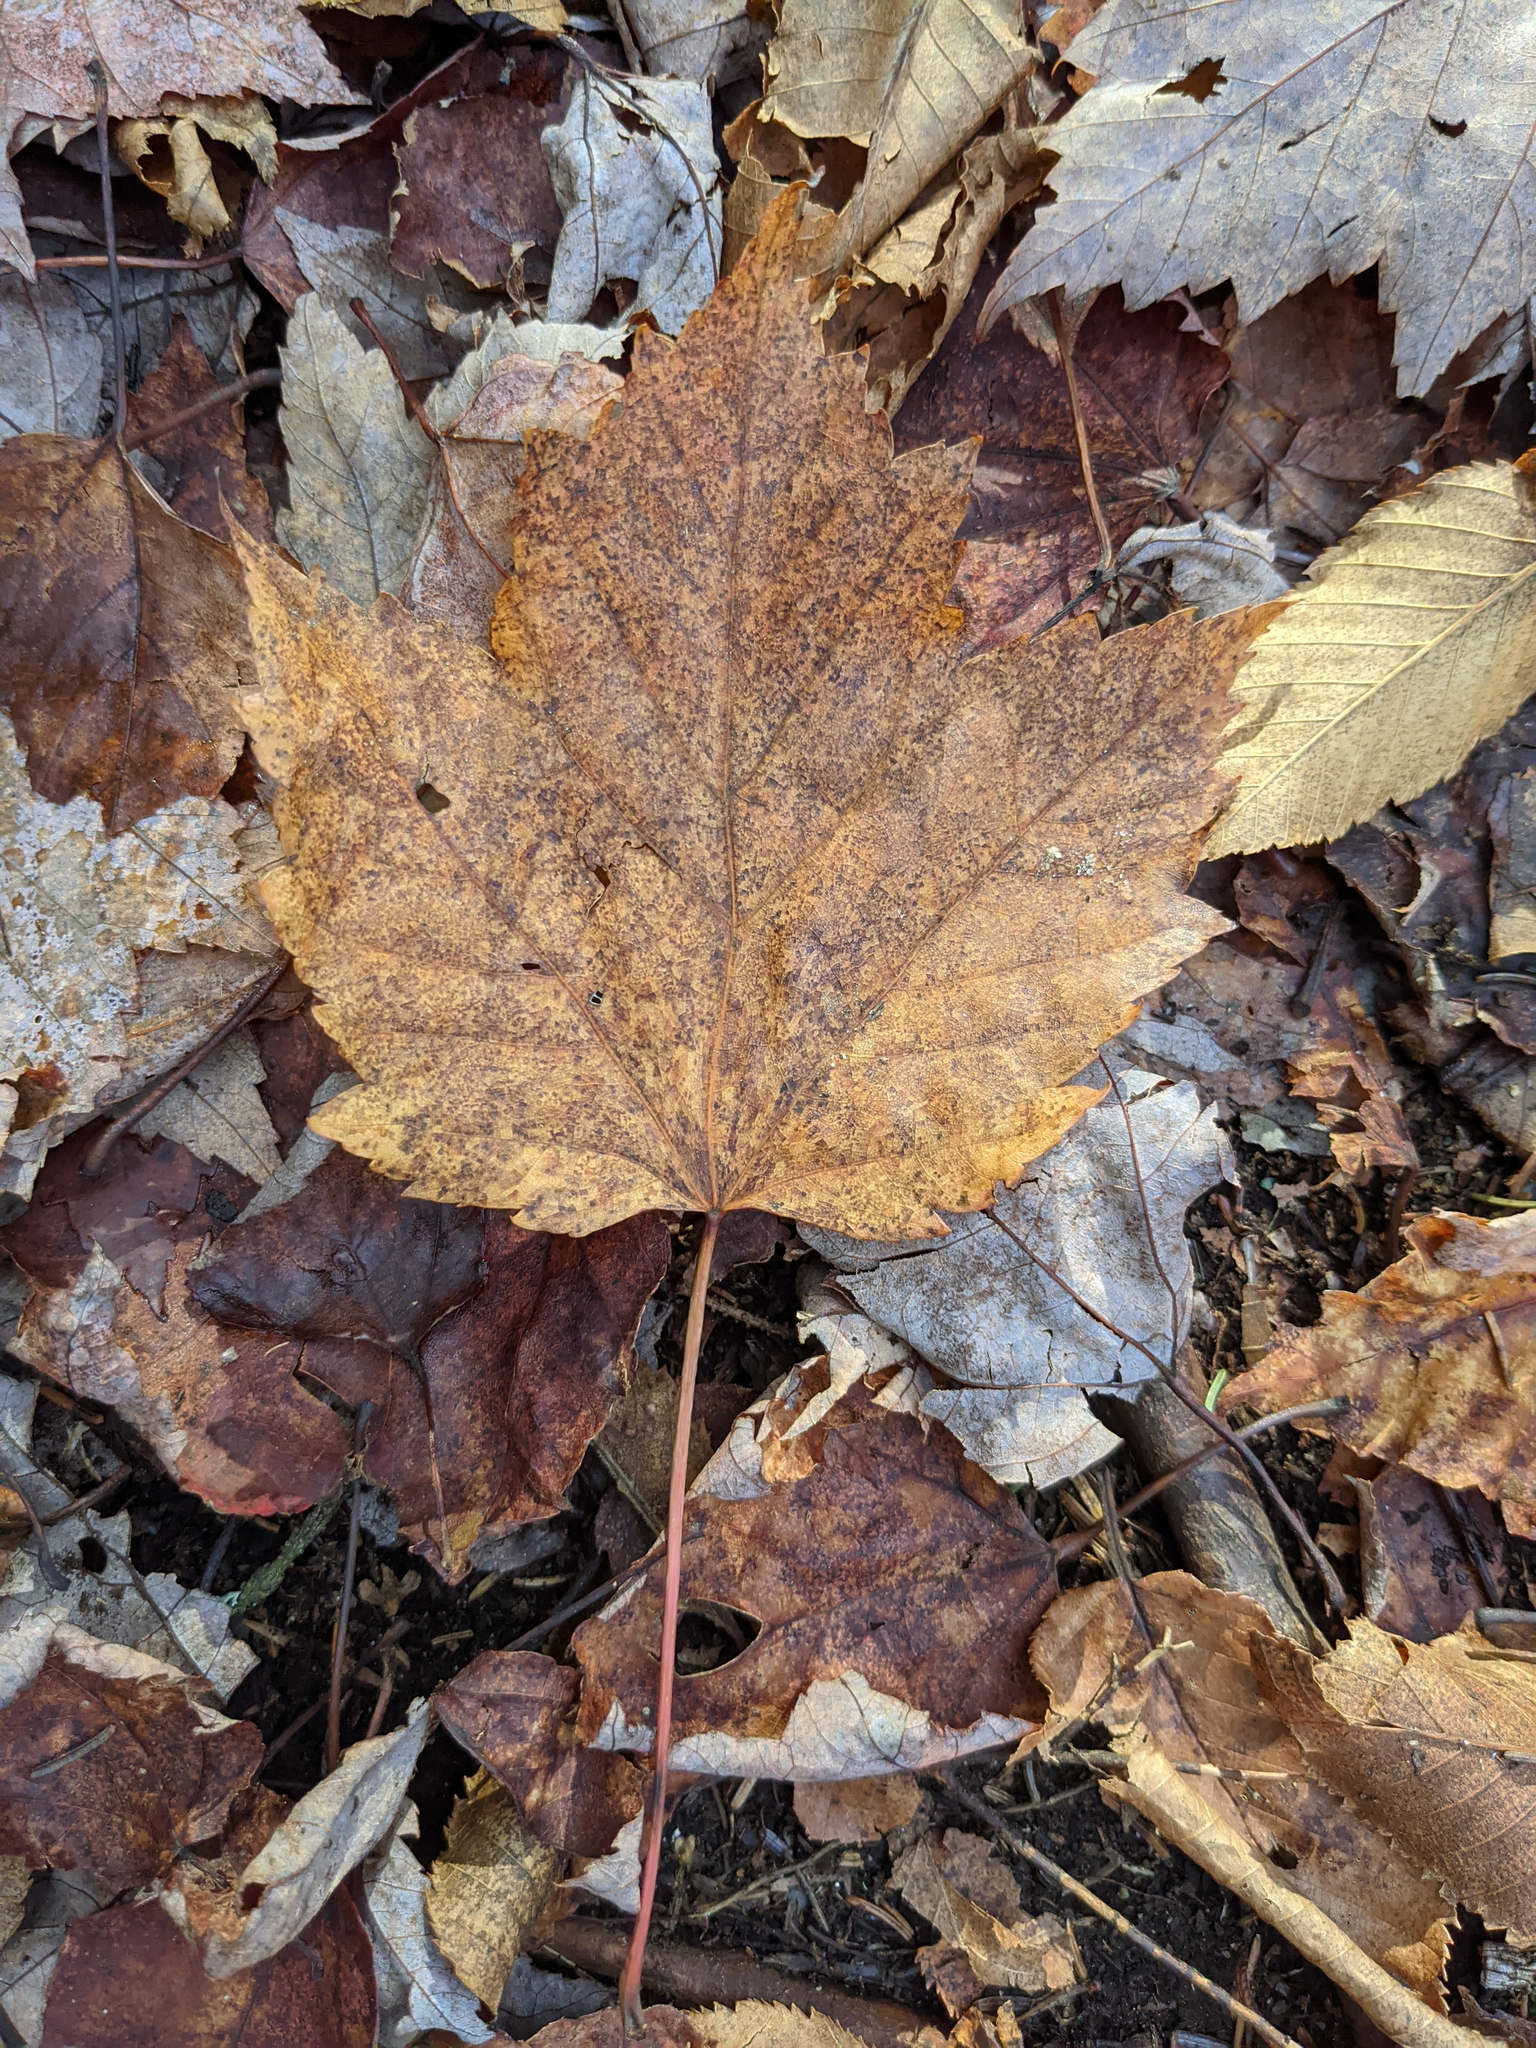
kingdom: Plantae
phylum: Tracheophyta
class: Magnoliopsida
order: Sapindales
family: Sapindaceae
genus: Acer
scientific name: Acer rubrum
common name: Red maple
